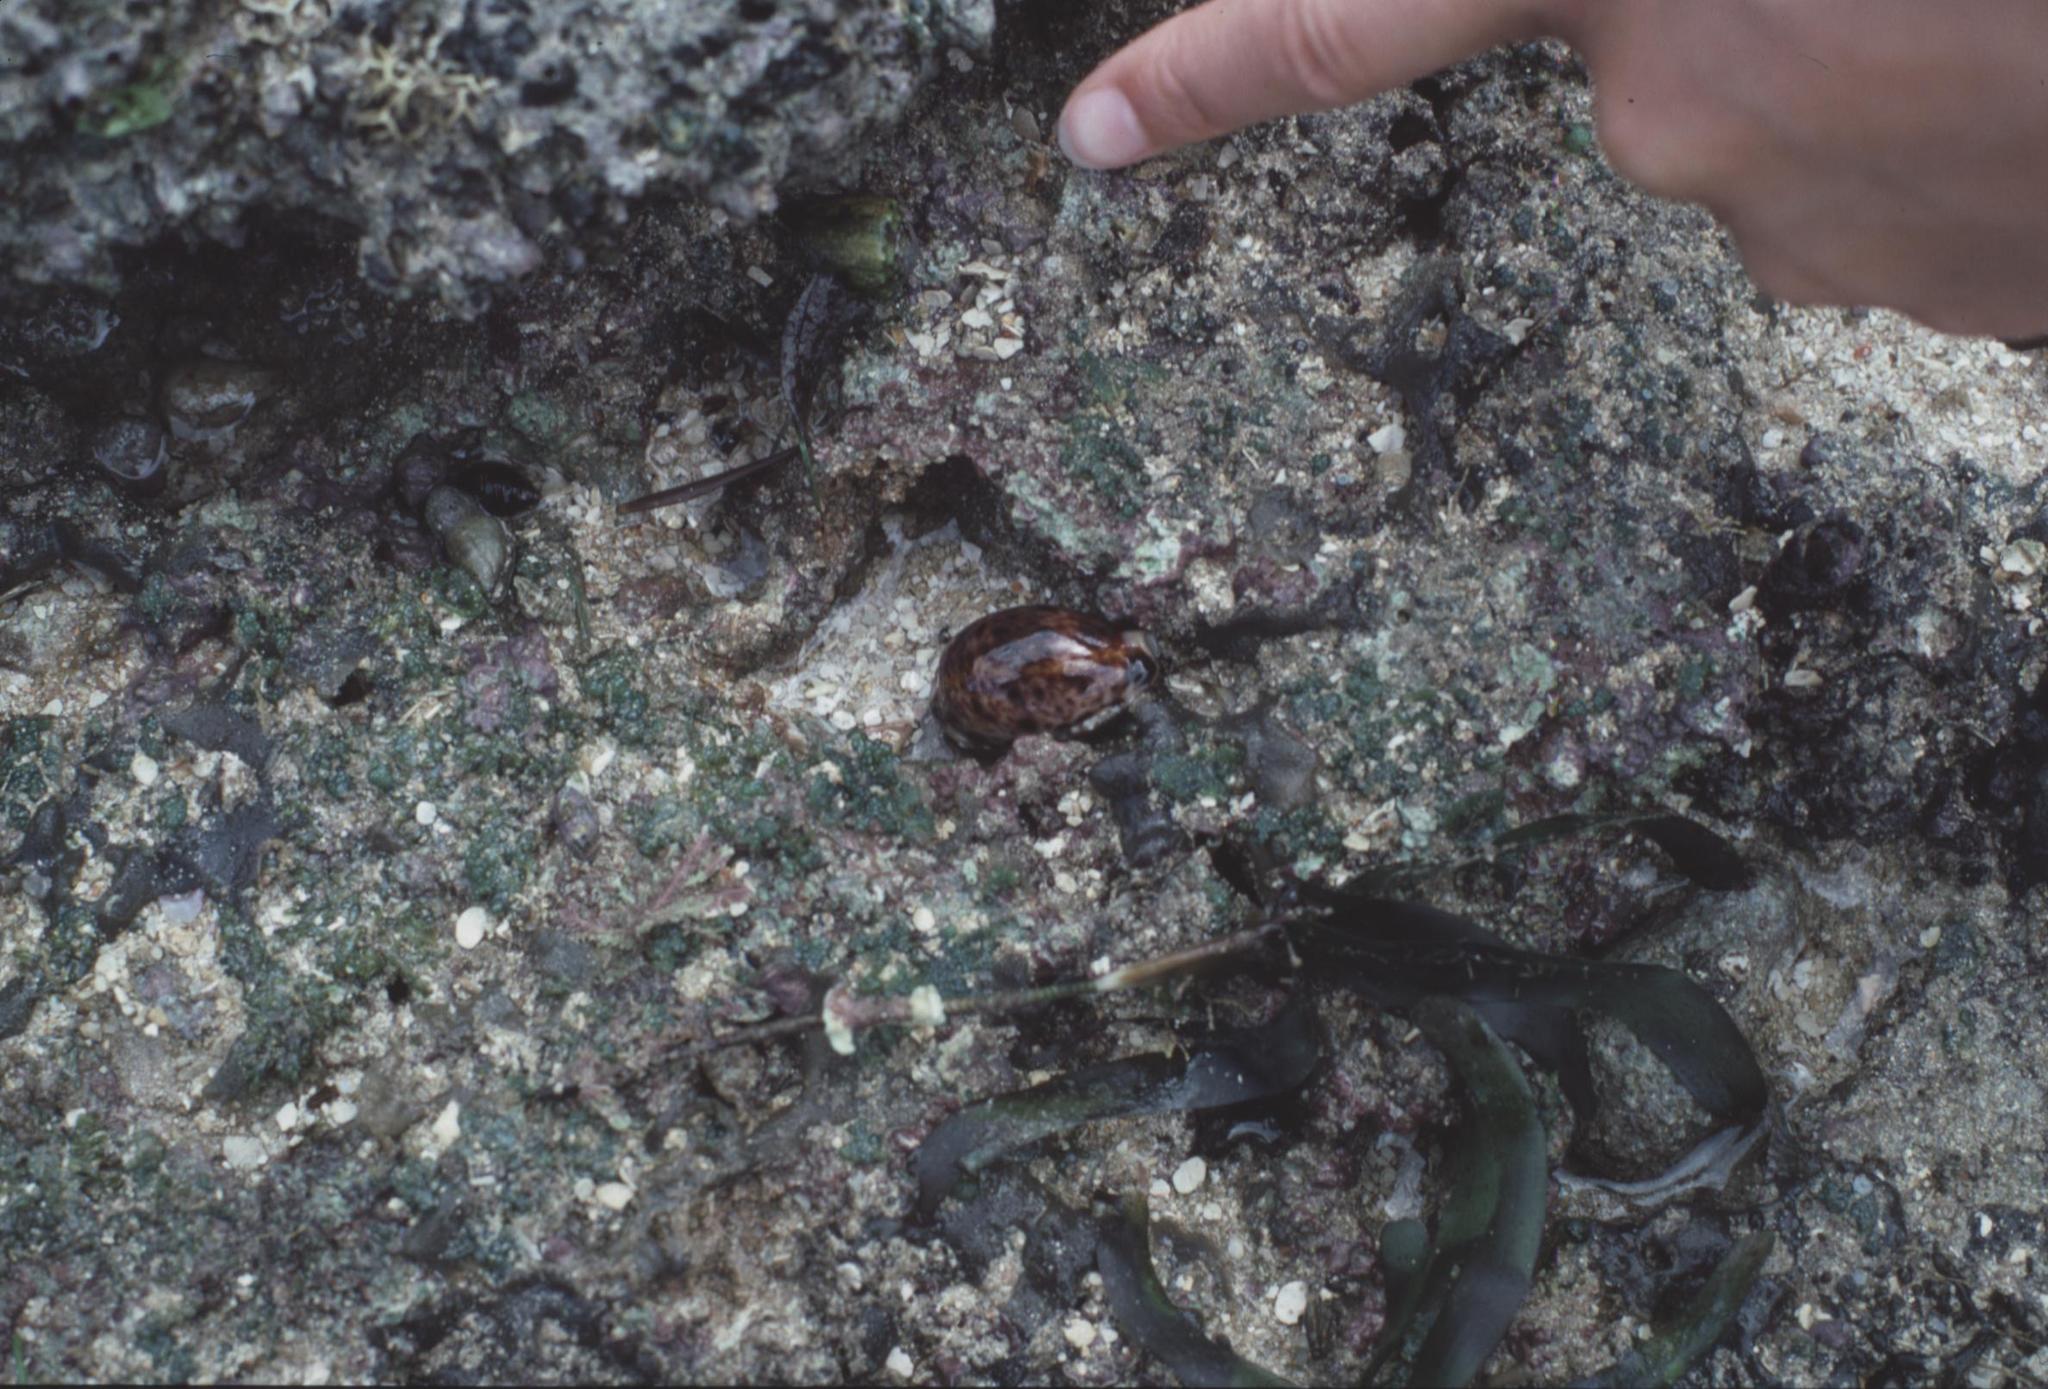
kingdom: Animalia
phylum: Mollusca
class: Gastropoda
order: Littorinimorpha
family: Cypraeidae
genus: Lyncina
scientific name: Lyncina lynx
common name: Bobcat cowrie
